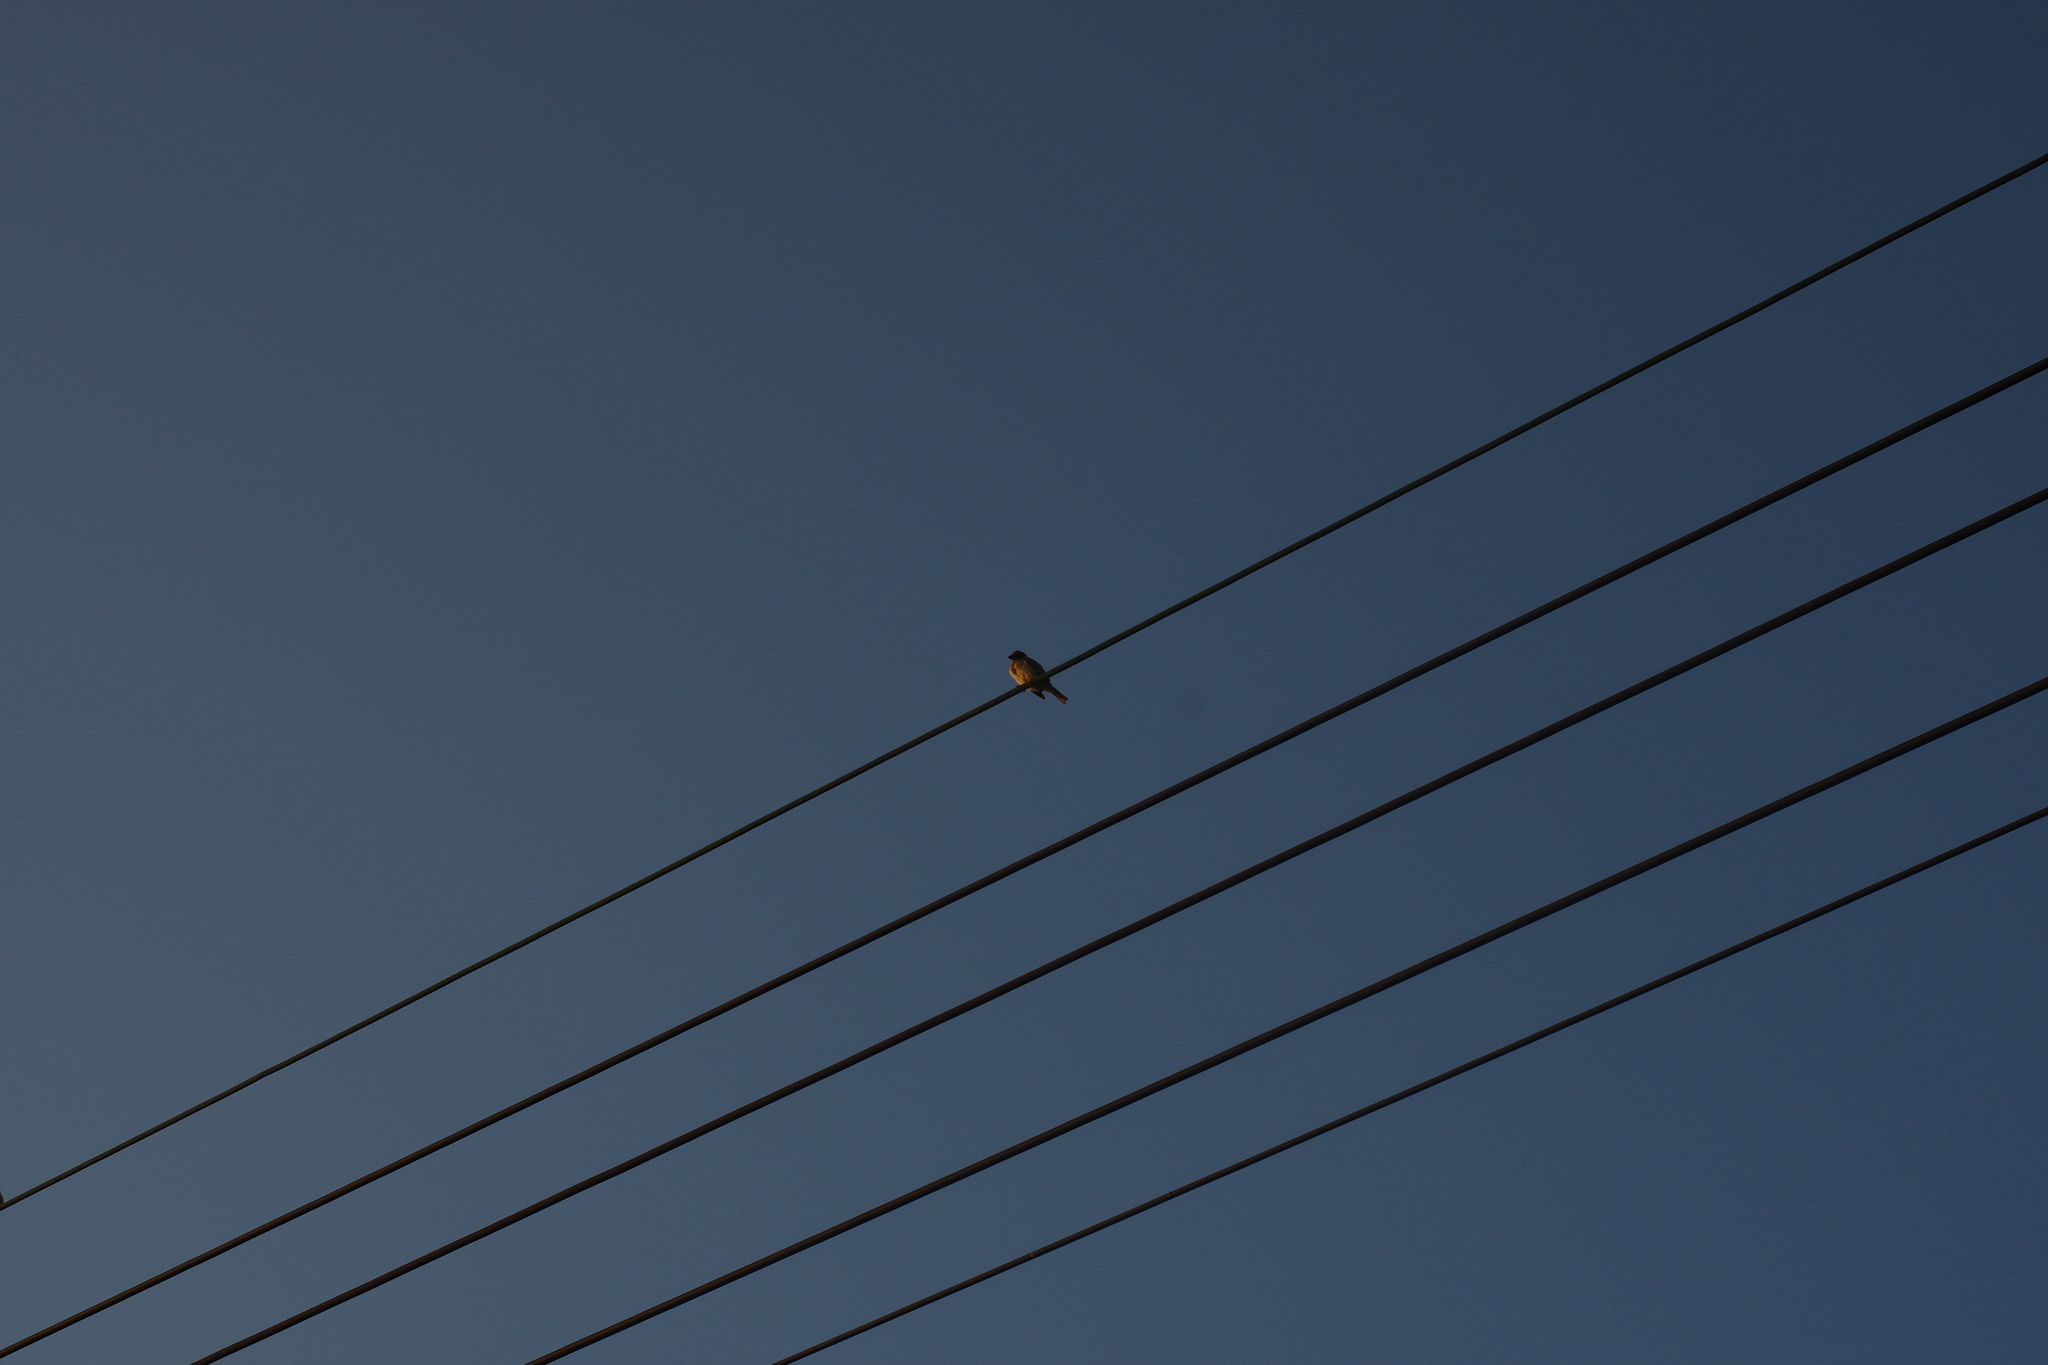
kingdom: Animalia
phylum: Chordata
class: Aves
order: Passeriformes
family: Passeridae
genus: Passer
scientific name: Passer montanus
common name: Eurasian tree sparrow
